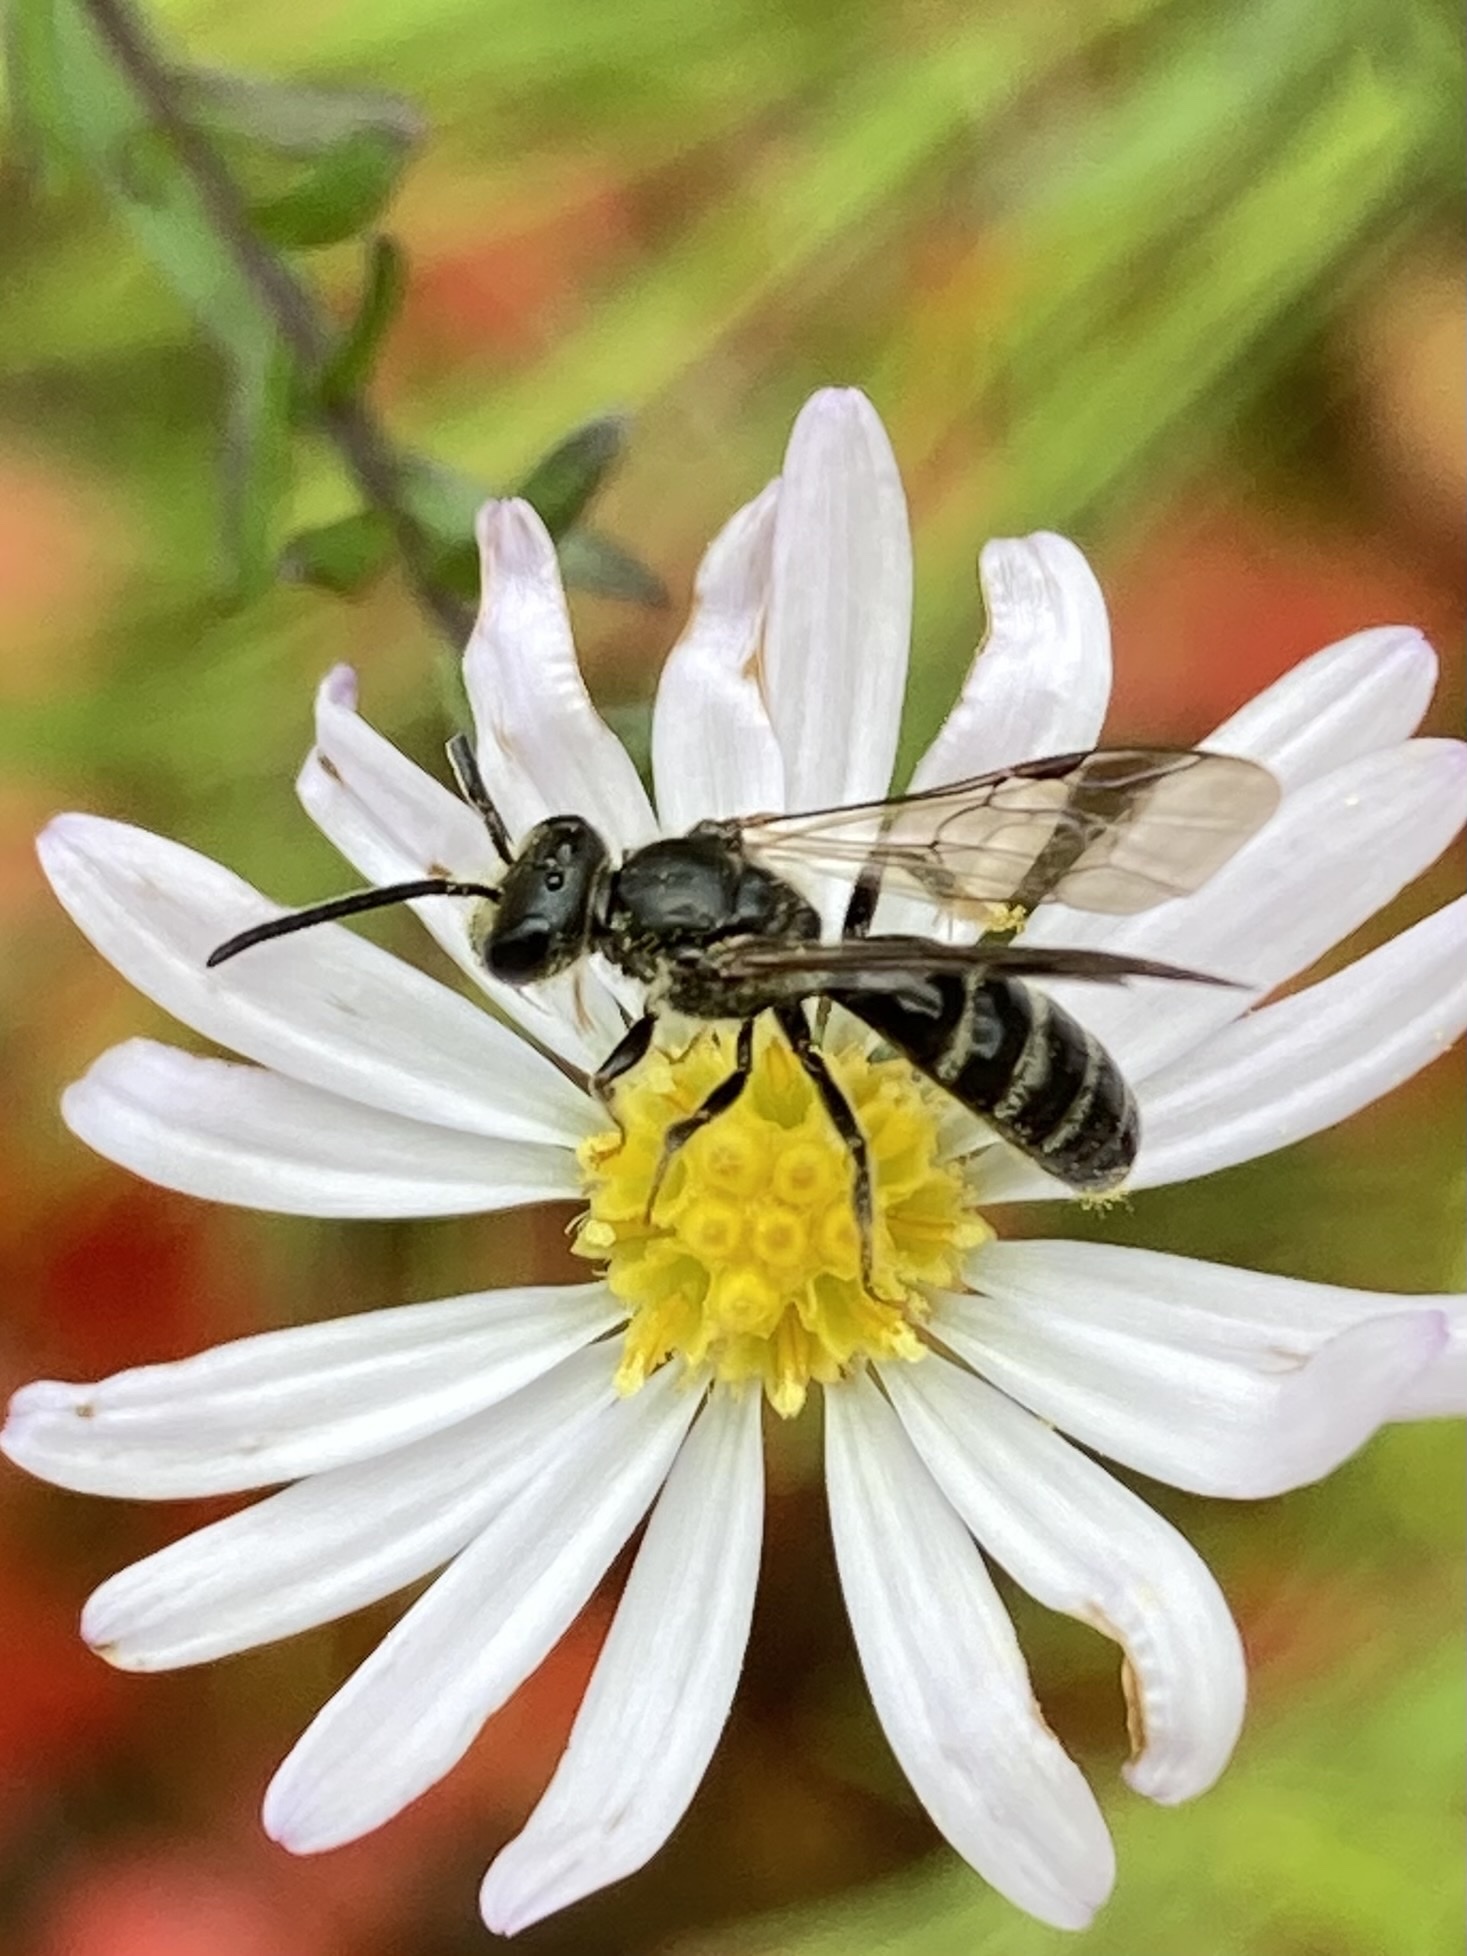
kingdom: Animalia
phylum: Arthropoda
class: Insecta
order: Hymenoptera
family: Halictidae
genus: Lasioglossum
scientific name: Lasioglossum fuscipenne
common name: Brown-winged sweat bee
